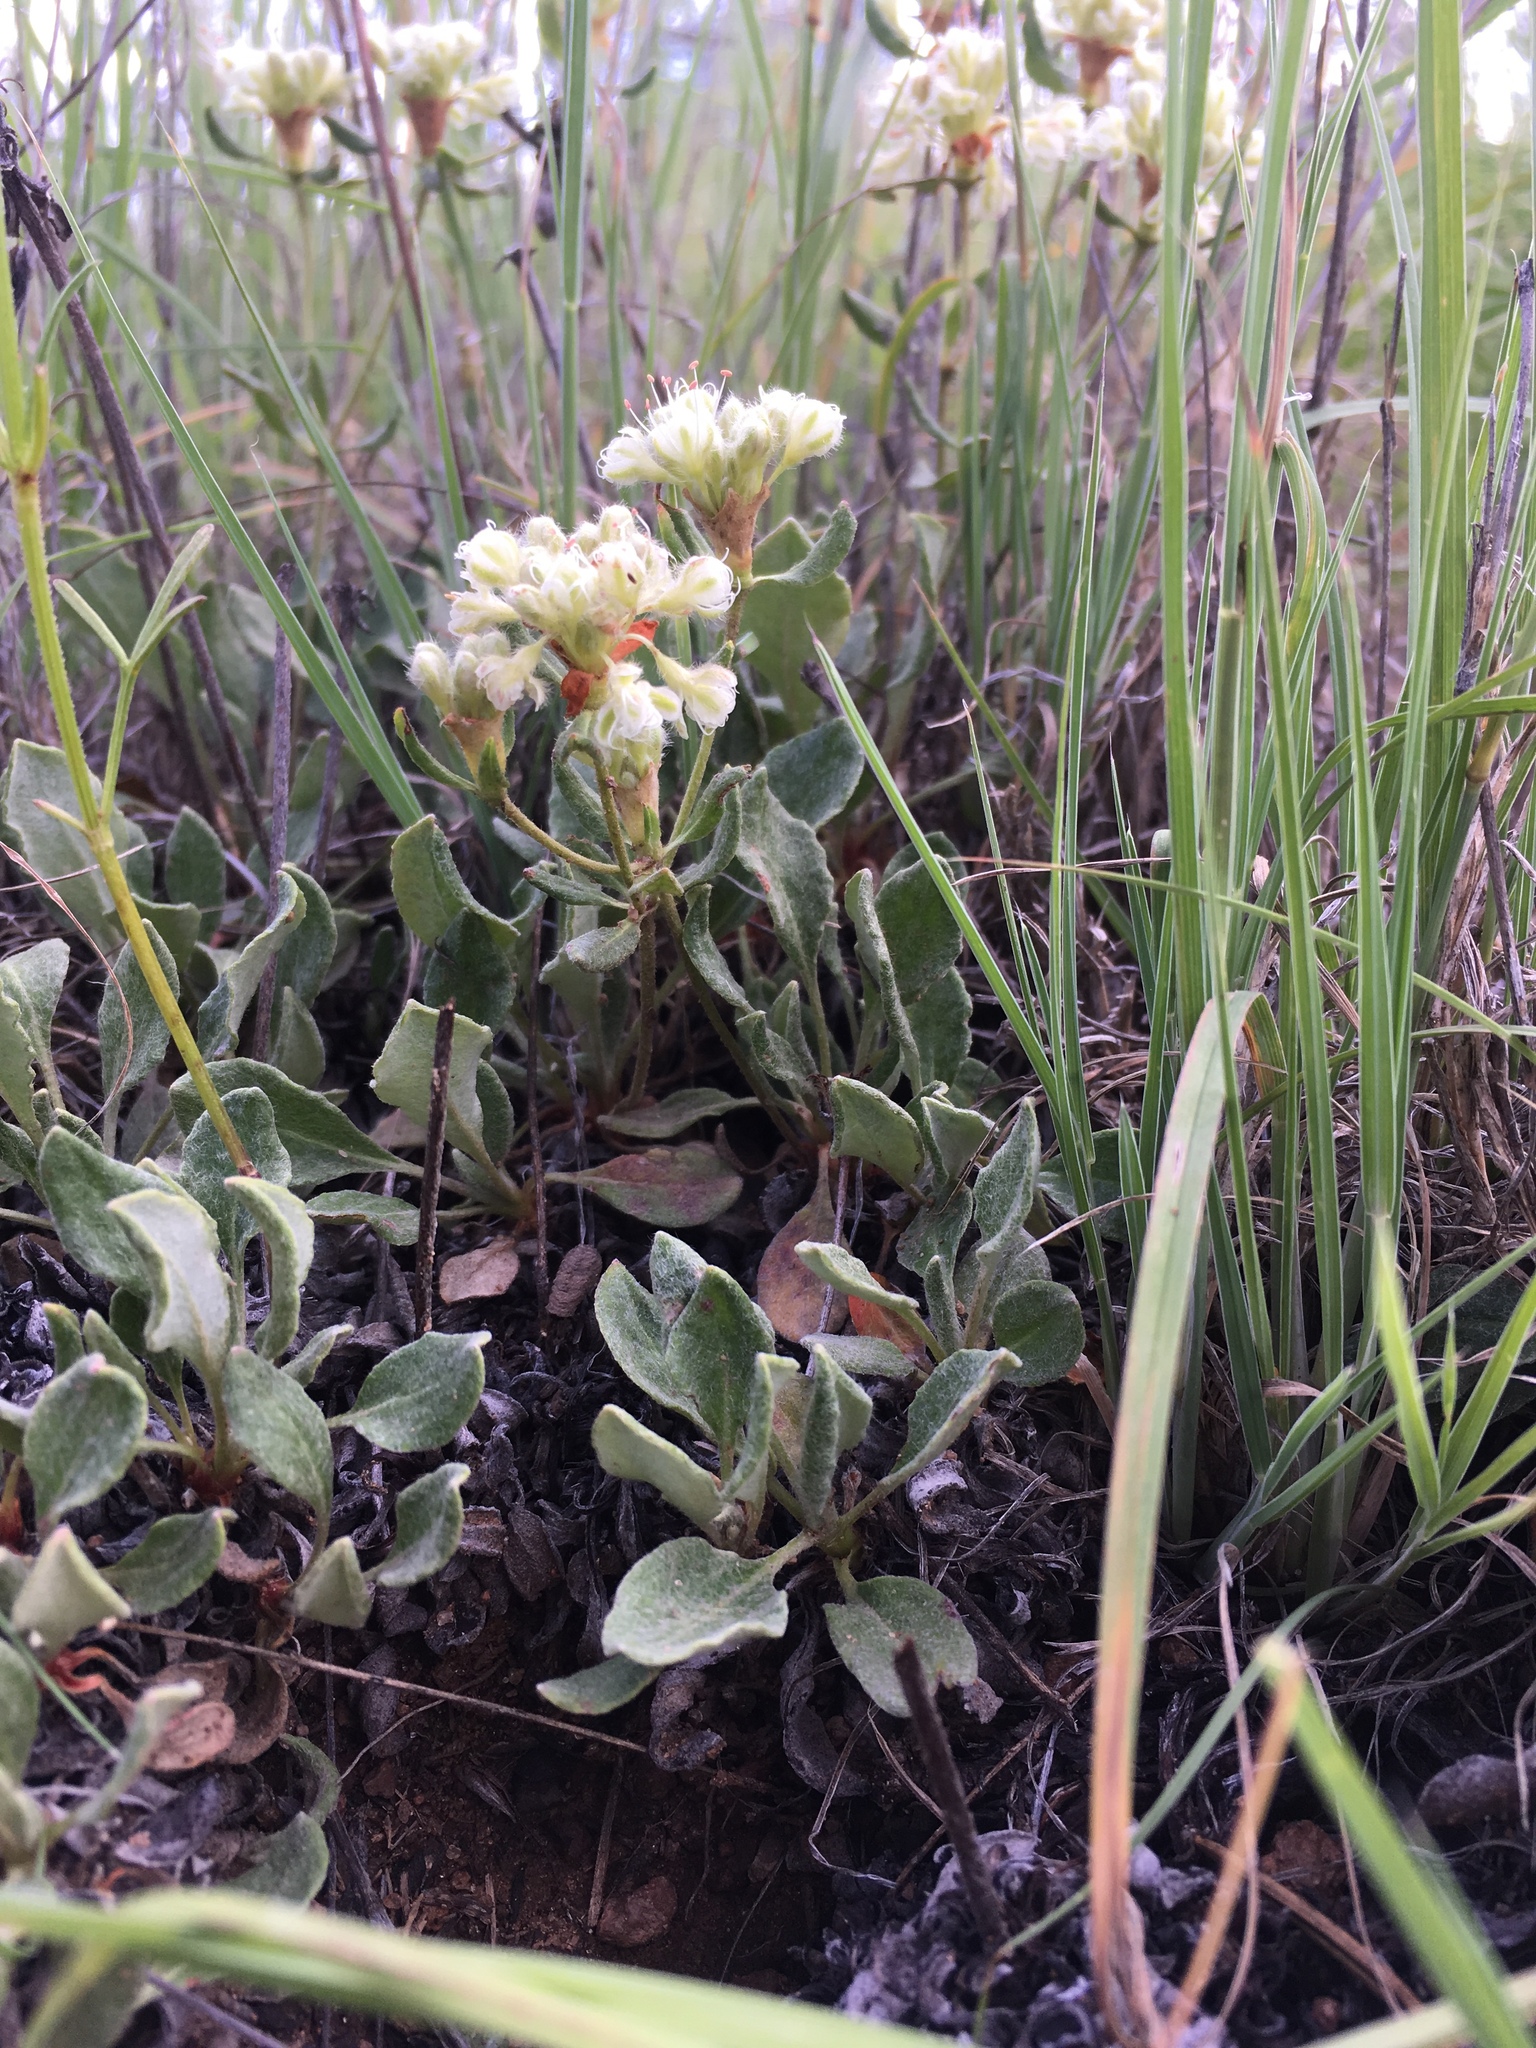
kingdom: Plantae
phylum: Tracheophyta
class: Magnoliopsida
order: Caryophyllales
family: Polygonaceae
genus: Eriogonum
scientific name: Eriogonum jamesii
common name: Antelope-sage
